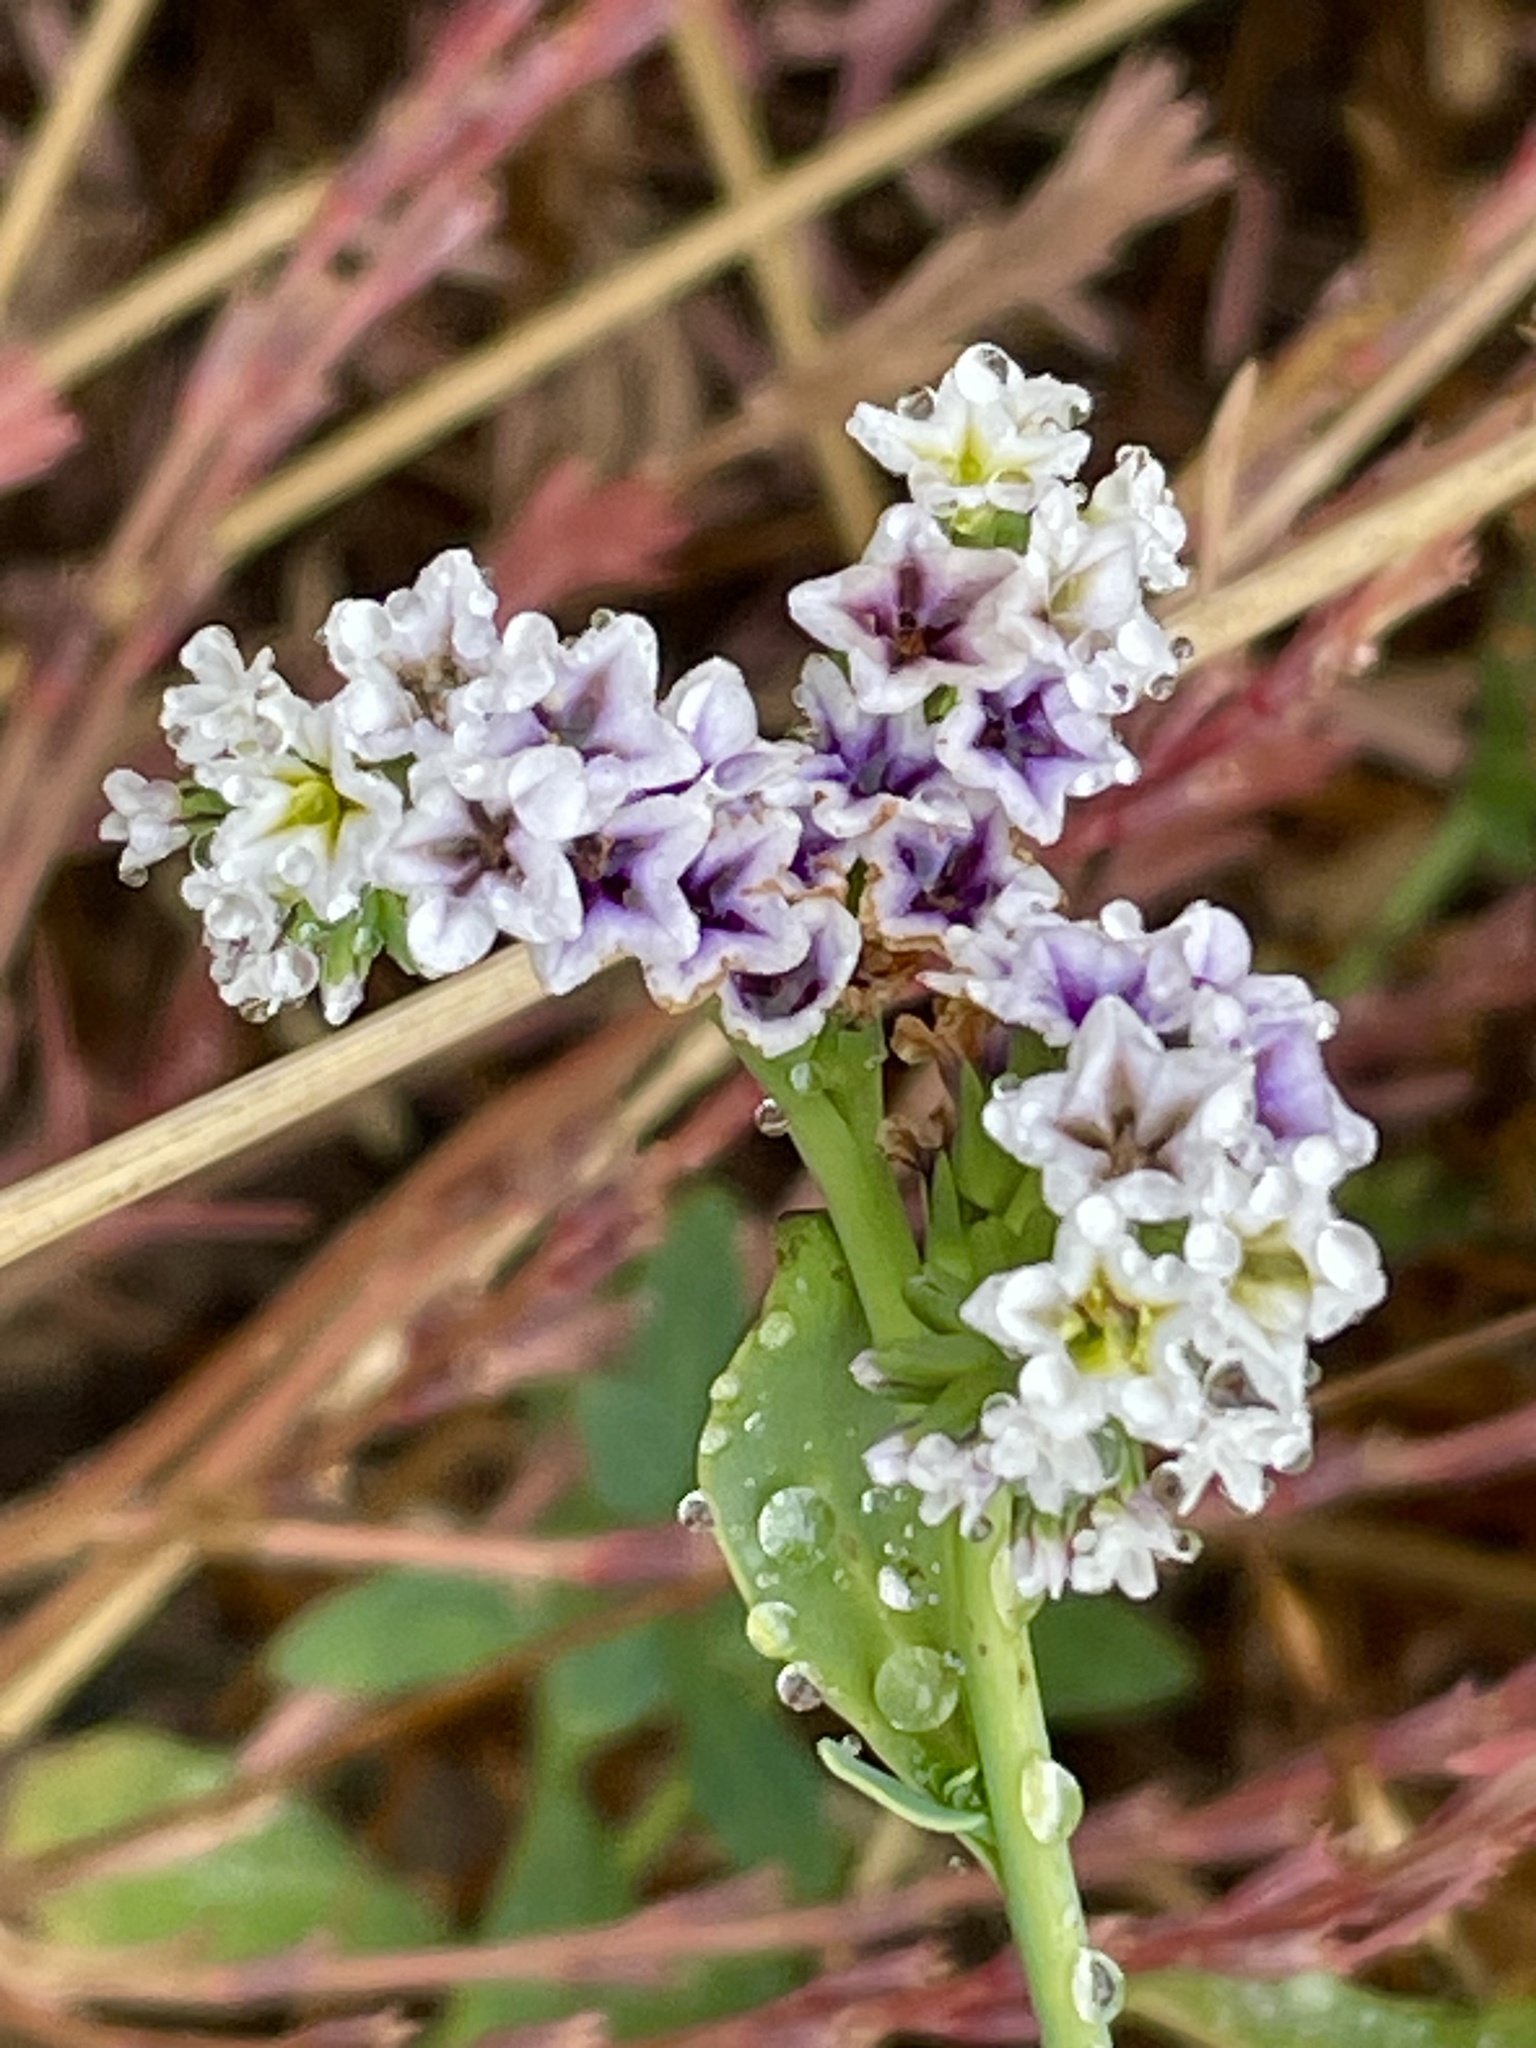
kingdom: Plantae
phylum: Tracheophyta
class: Magnoliopsida
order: Boraginales
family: Heliotropiaceae
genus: Heliotropium
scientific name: Heliotropium curassavicum
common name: Seaside heliotrope
